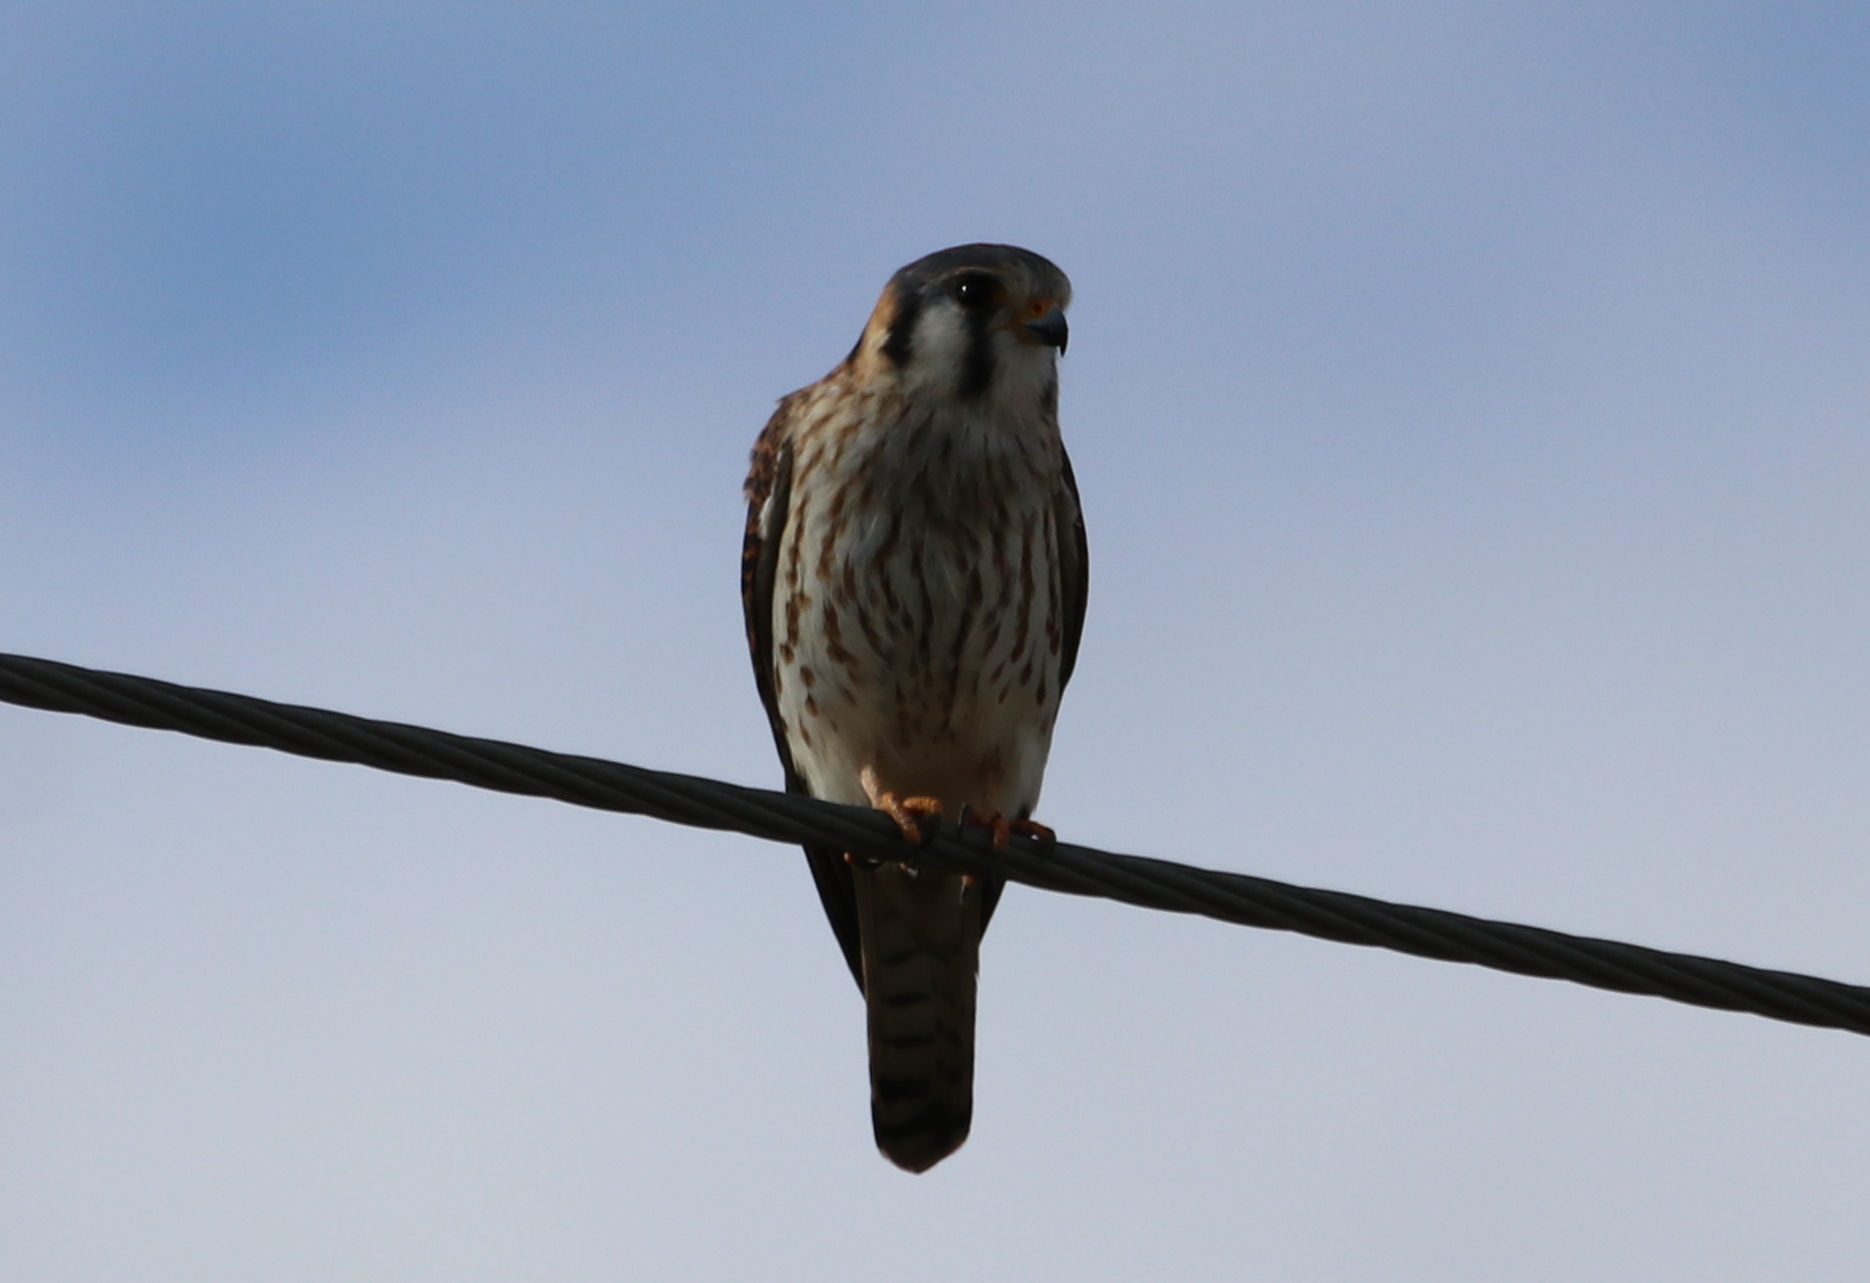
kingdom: Animalia
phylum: Chordata
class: Aves
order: Falconiformes
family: Falconidae
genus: Falco
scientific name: Falco sparverius
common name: American kestrel
